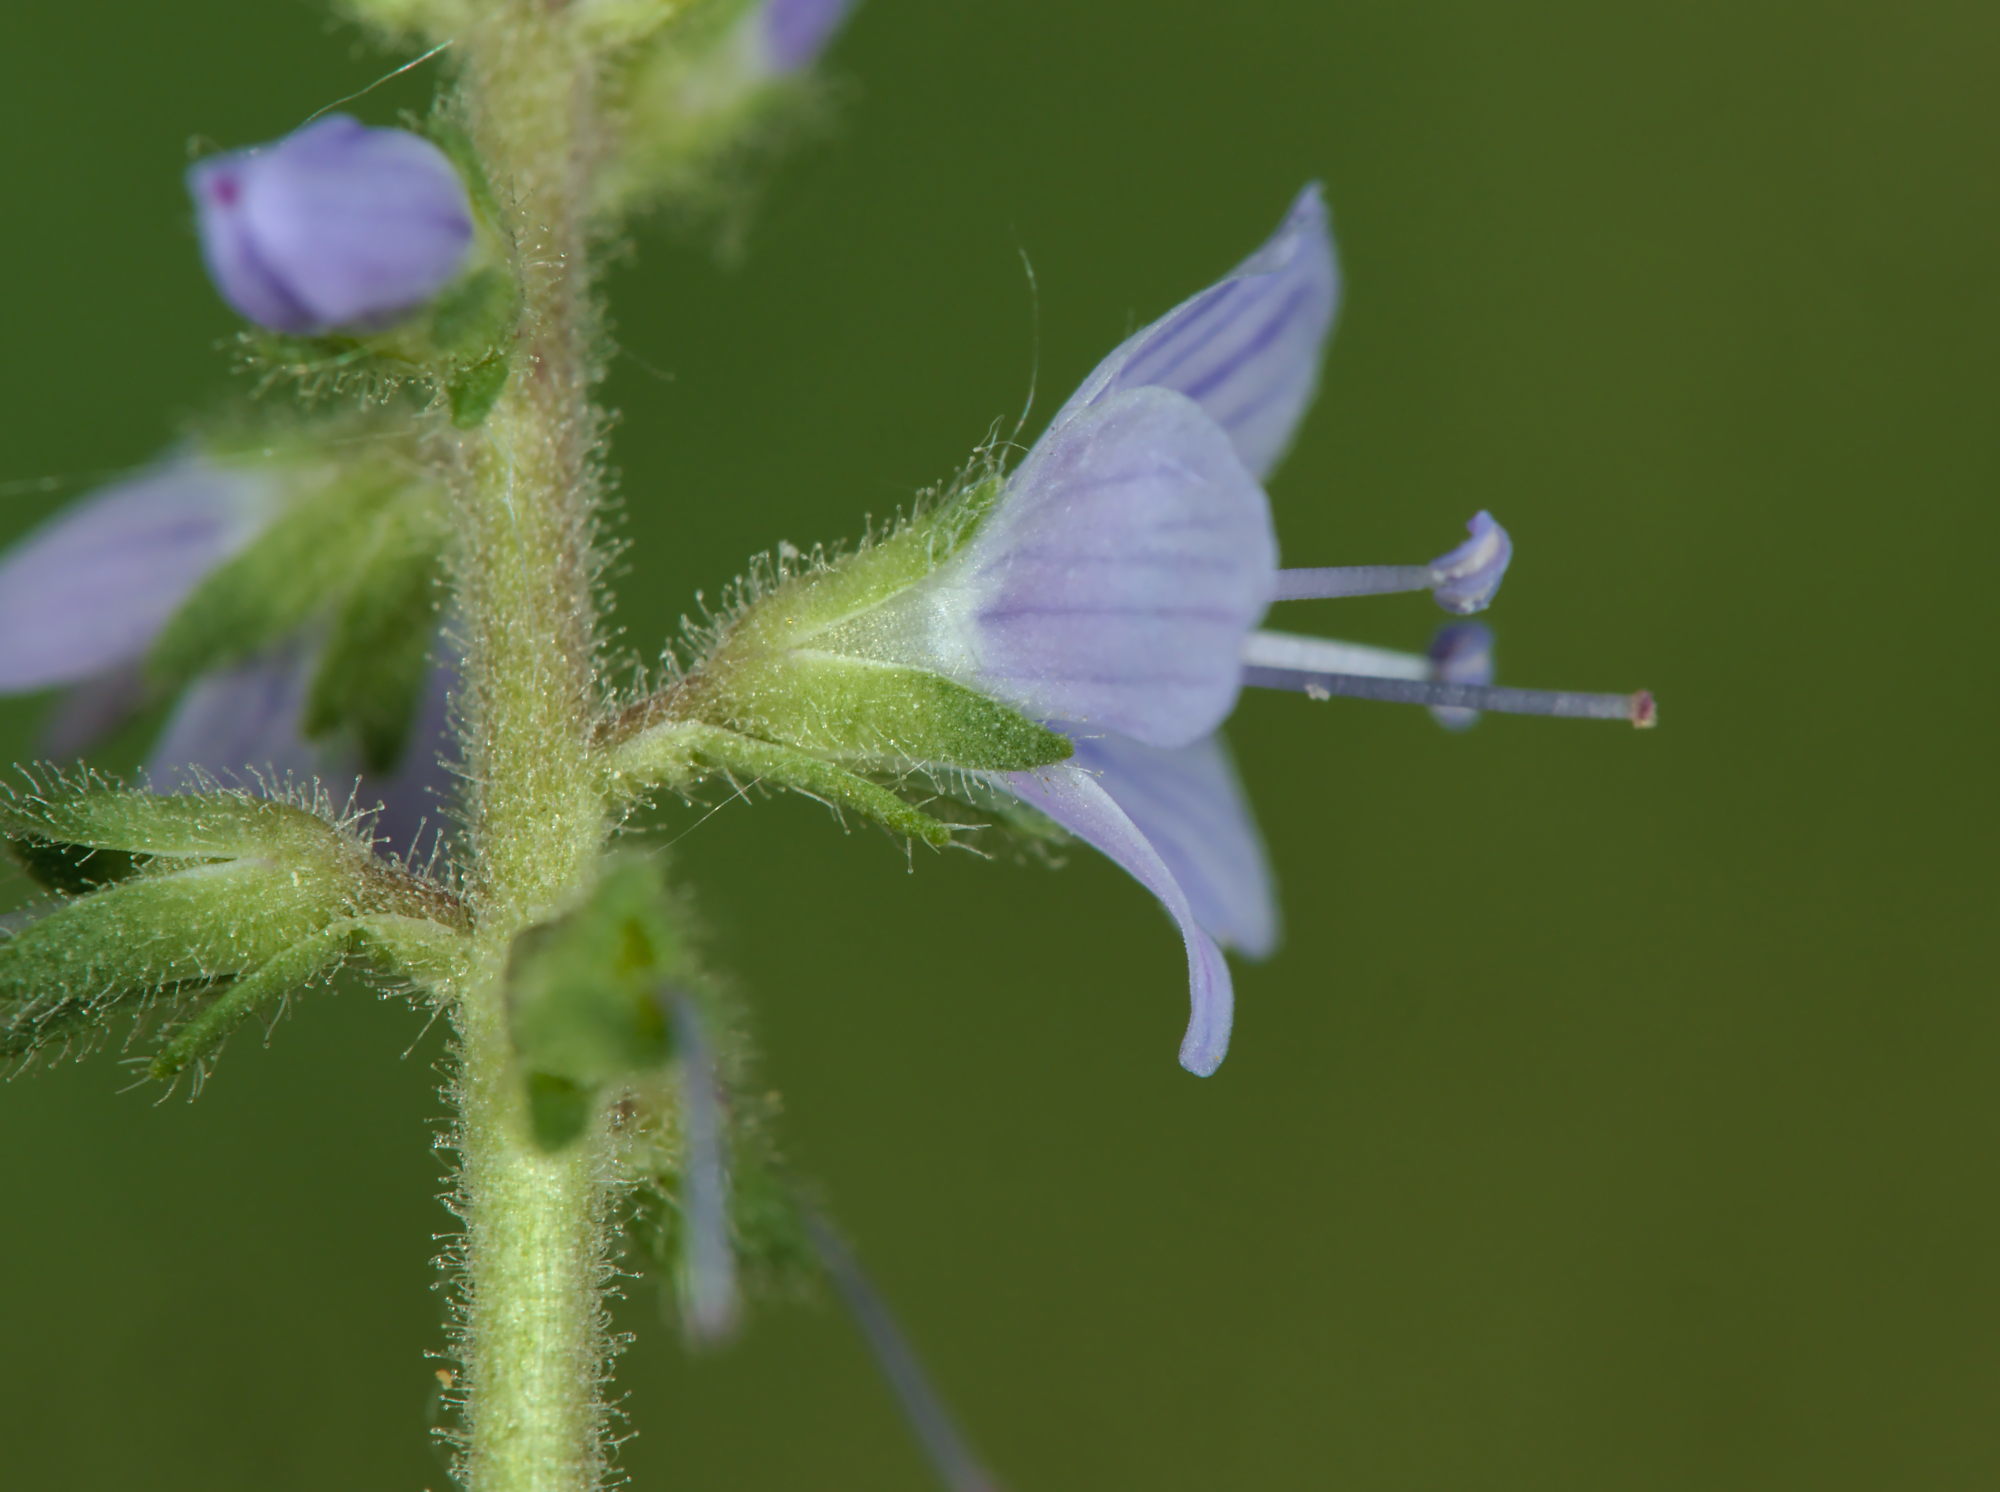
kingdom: Plantae
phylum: Tracheophyta
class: Magnoliopsida
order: Lamiales
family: Plantaginaceae
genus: Veronica
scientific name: Veronica officinalis
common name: Common speedwell
